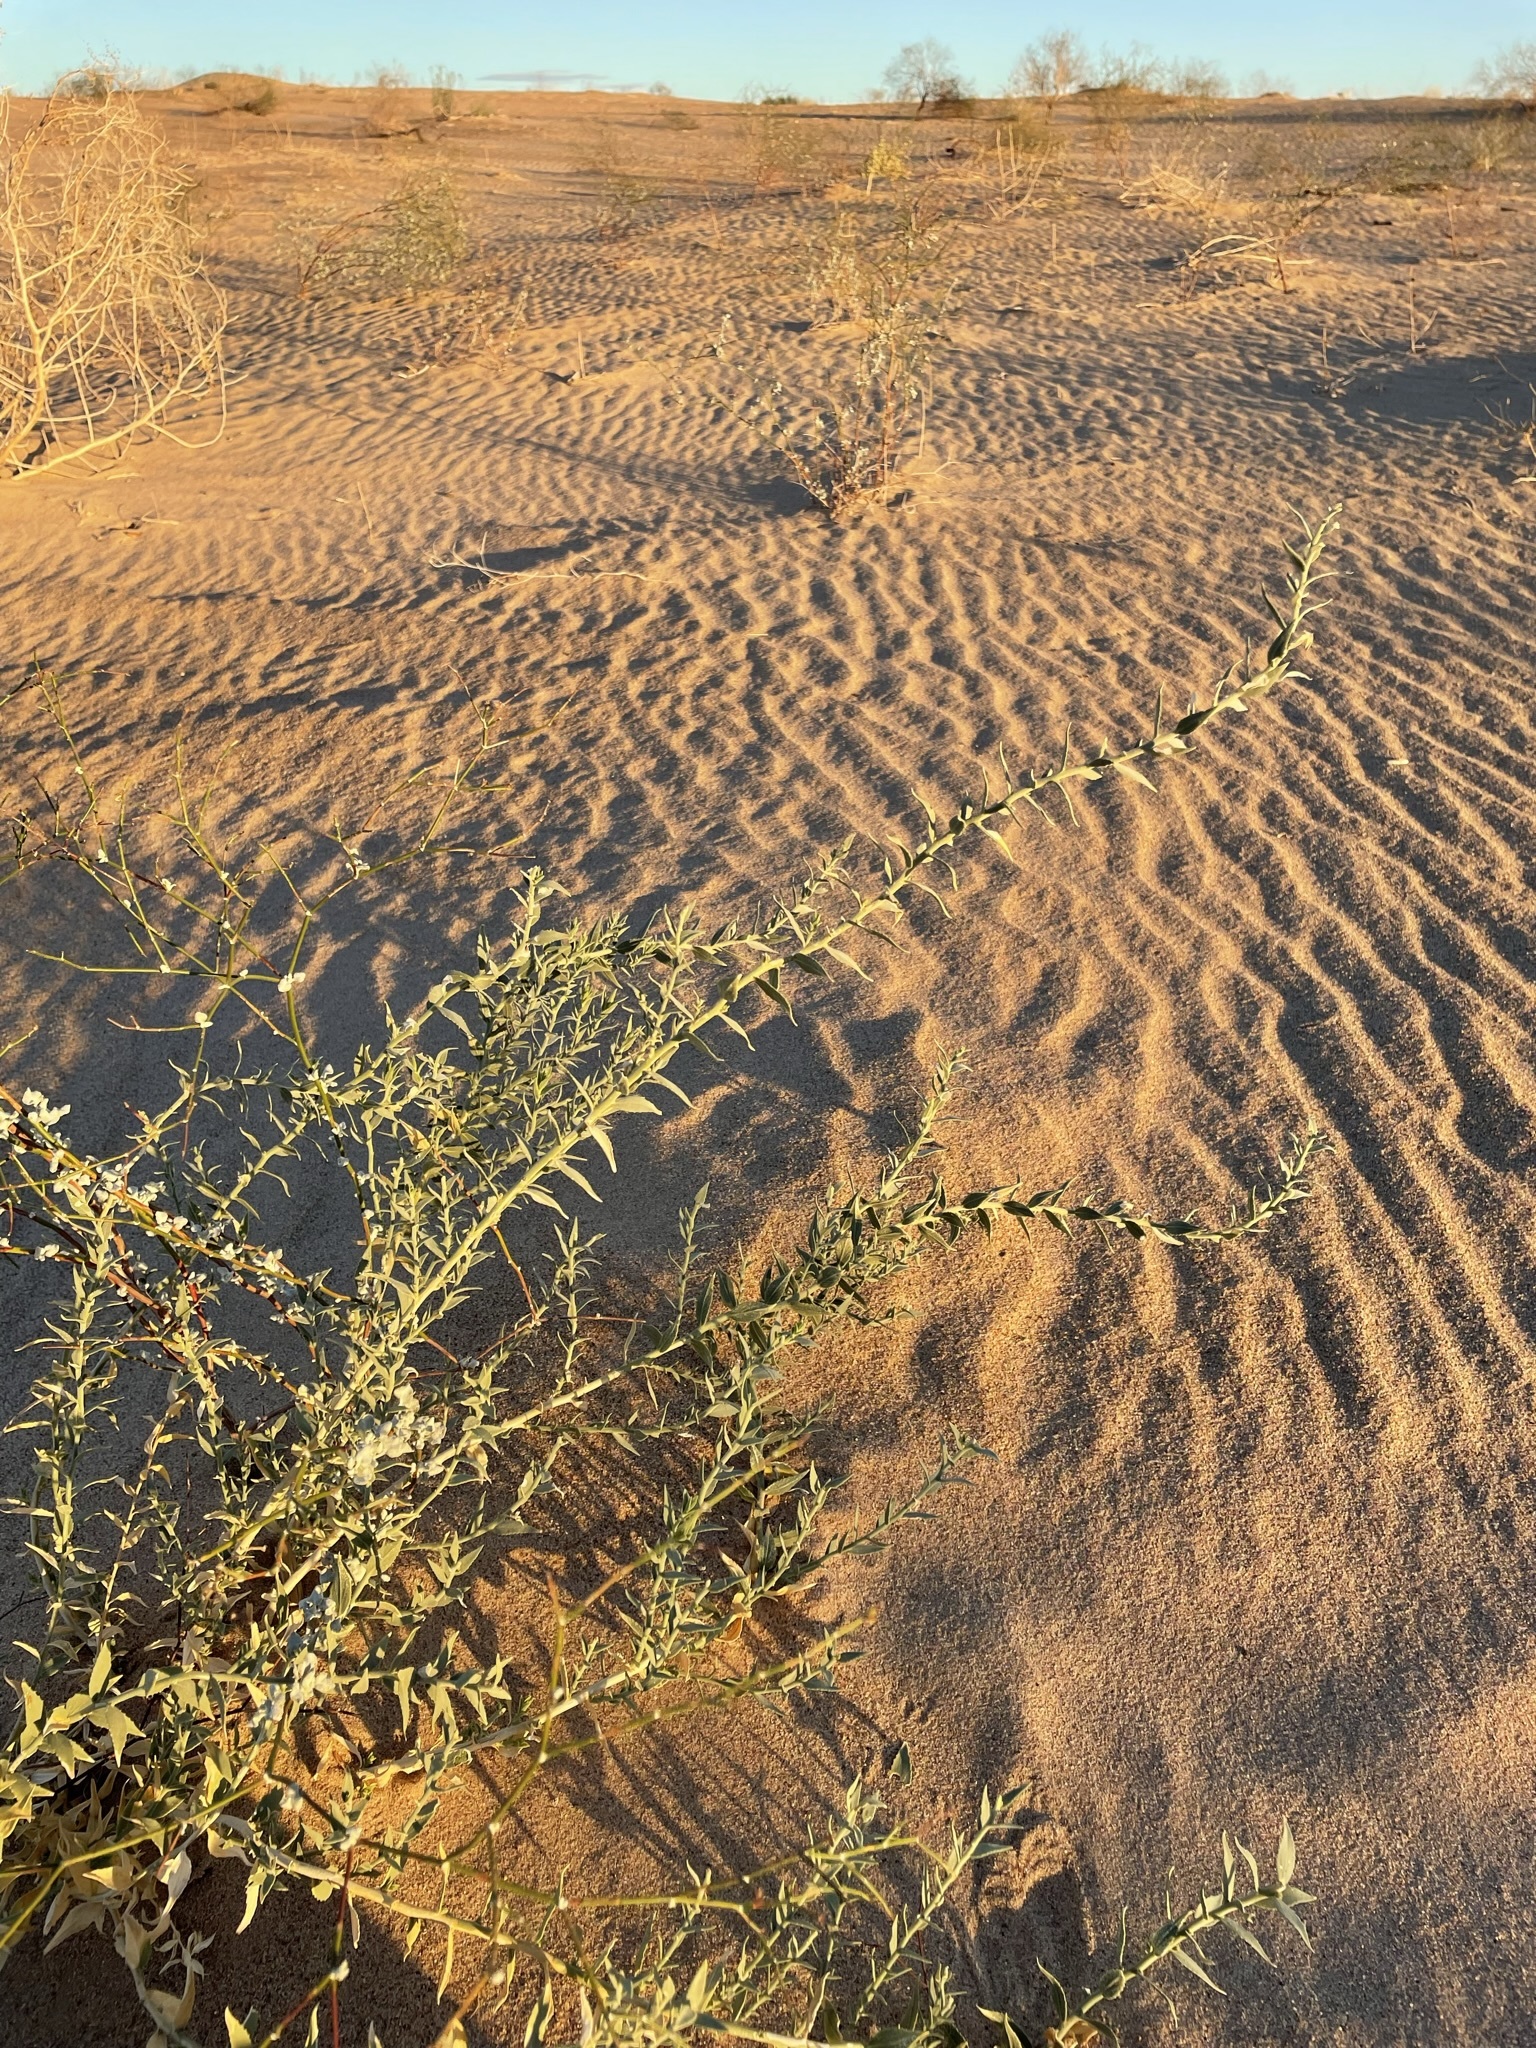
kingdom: Plantae
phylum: Tracheophyta
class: Magnoliopsida
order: Cornales
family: Loasaceae
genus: Petalonyx
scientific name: Petalonyx thurberi
